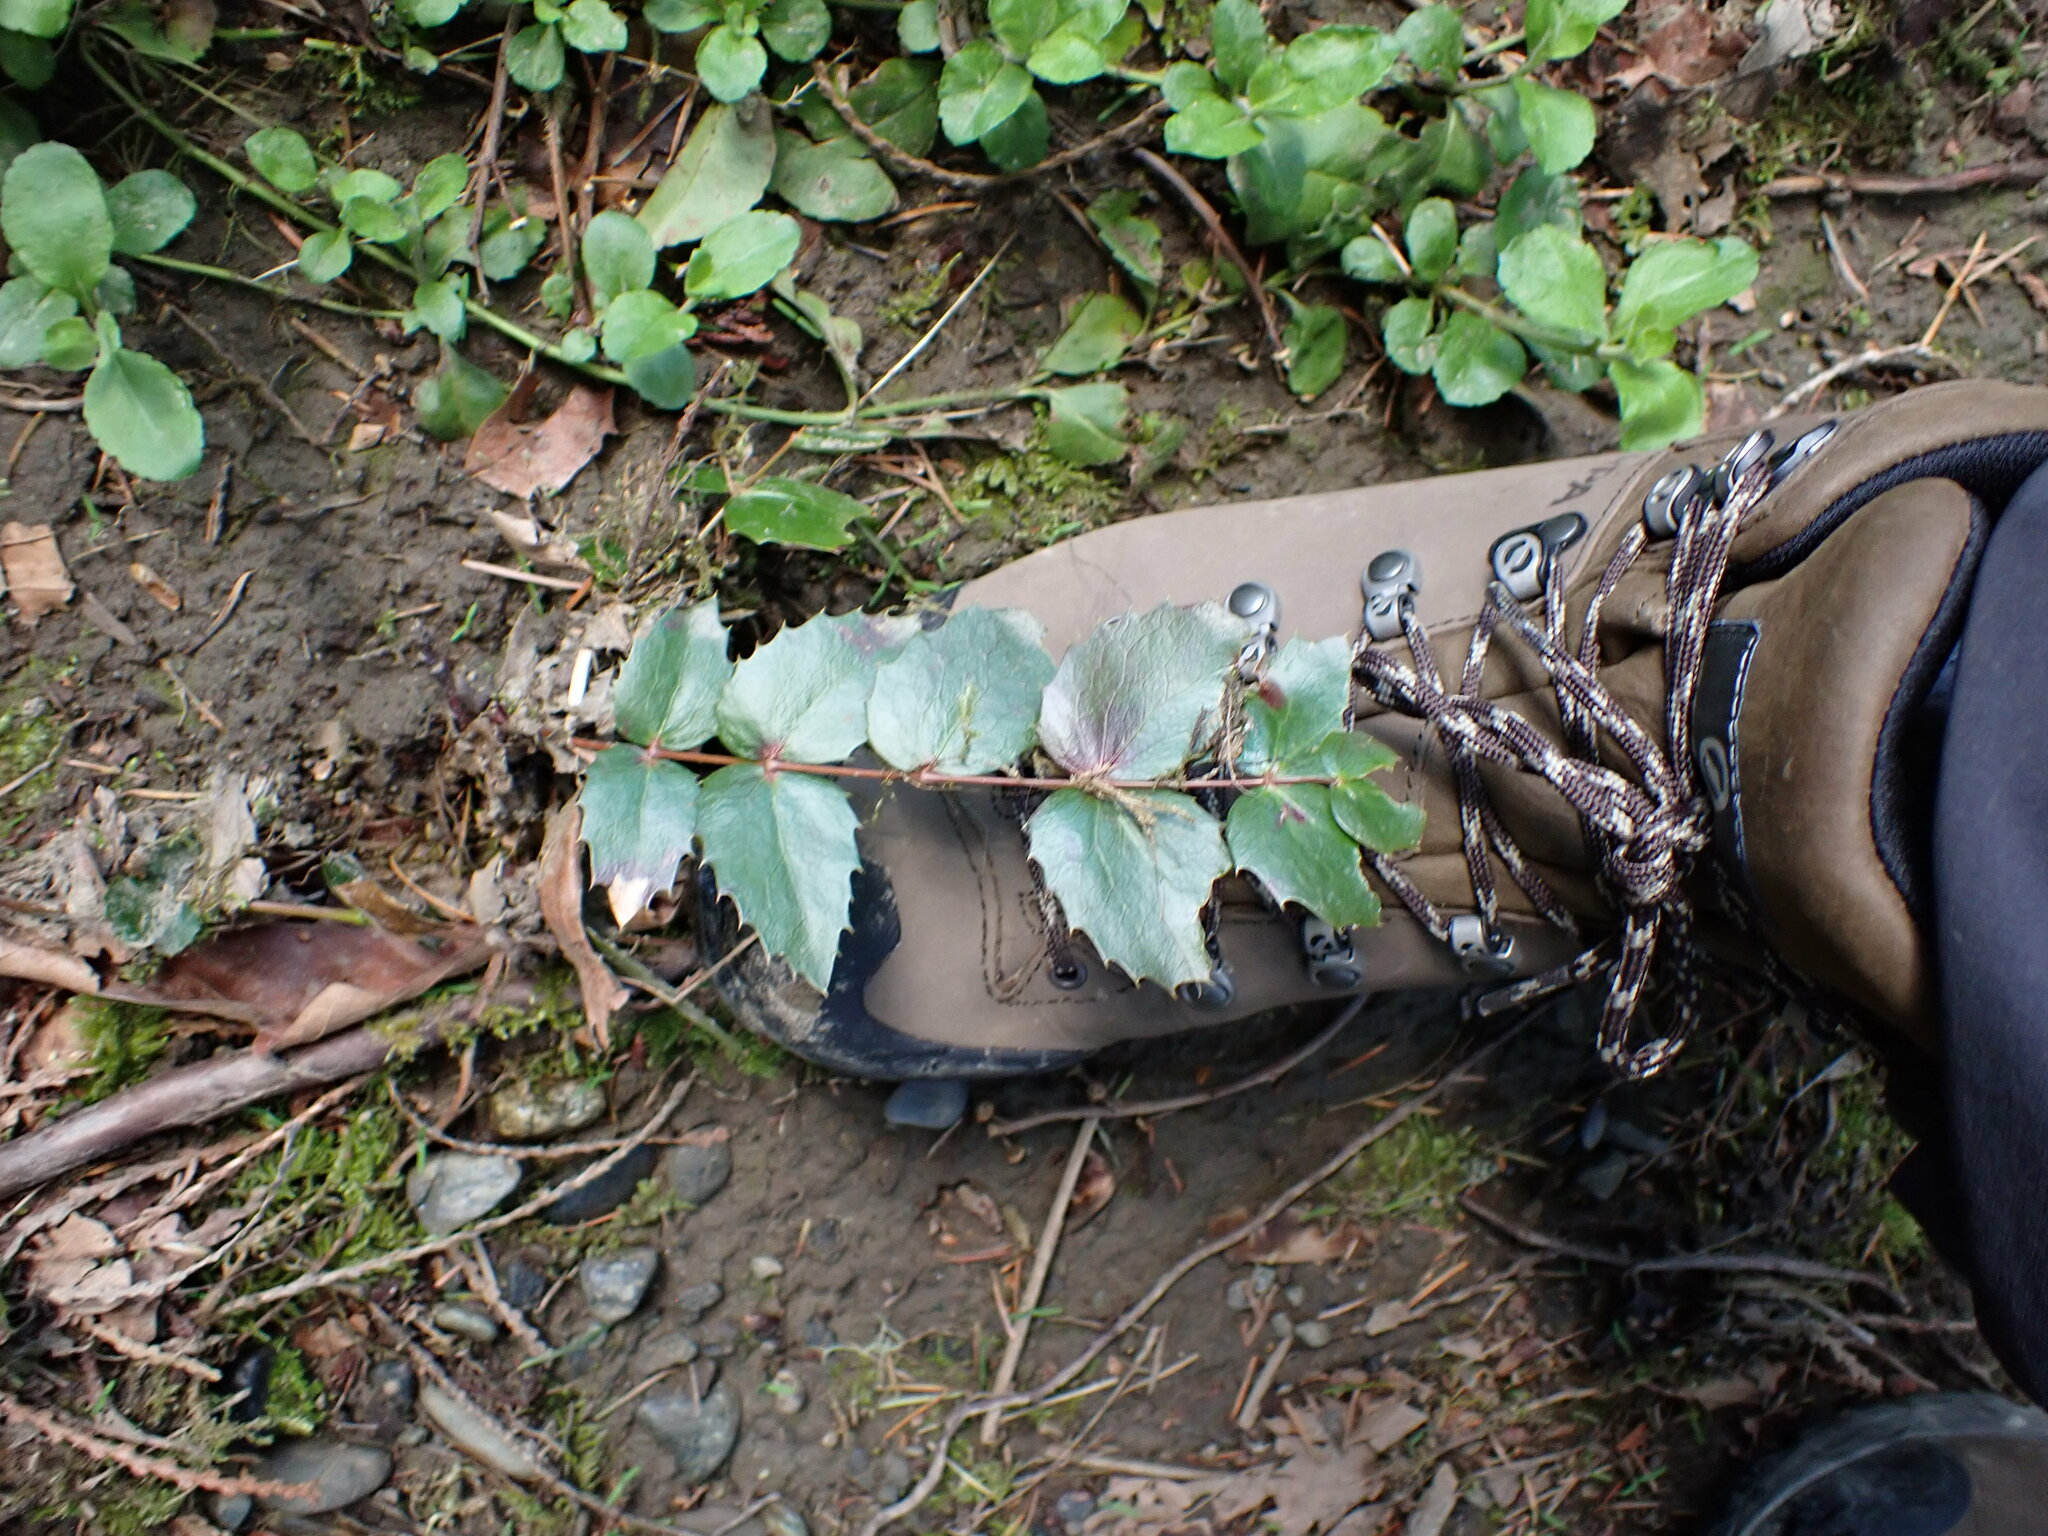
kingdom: Plantae
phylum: Tracheophyta
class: Magnoliopsida
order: Ranunculales
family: Berberidaceae
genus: Mahonia
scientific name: Mahonia nervosa
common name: Cascade oregon-grape
